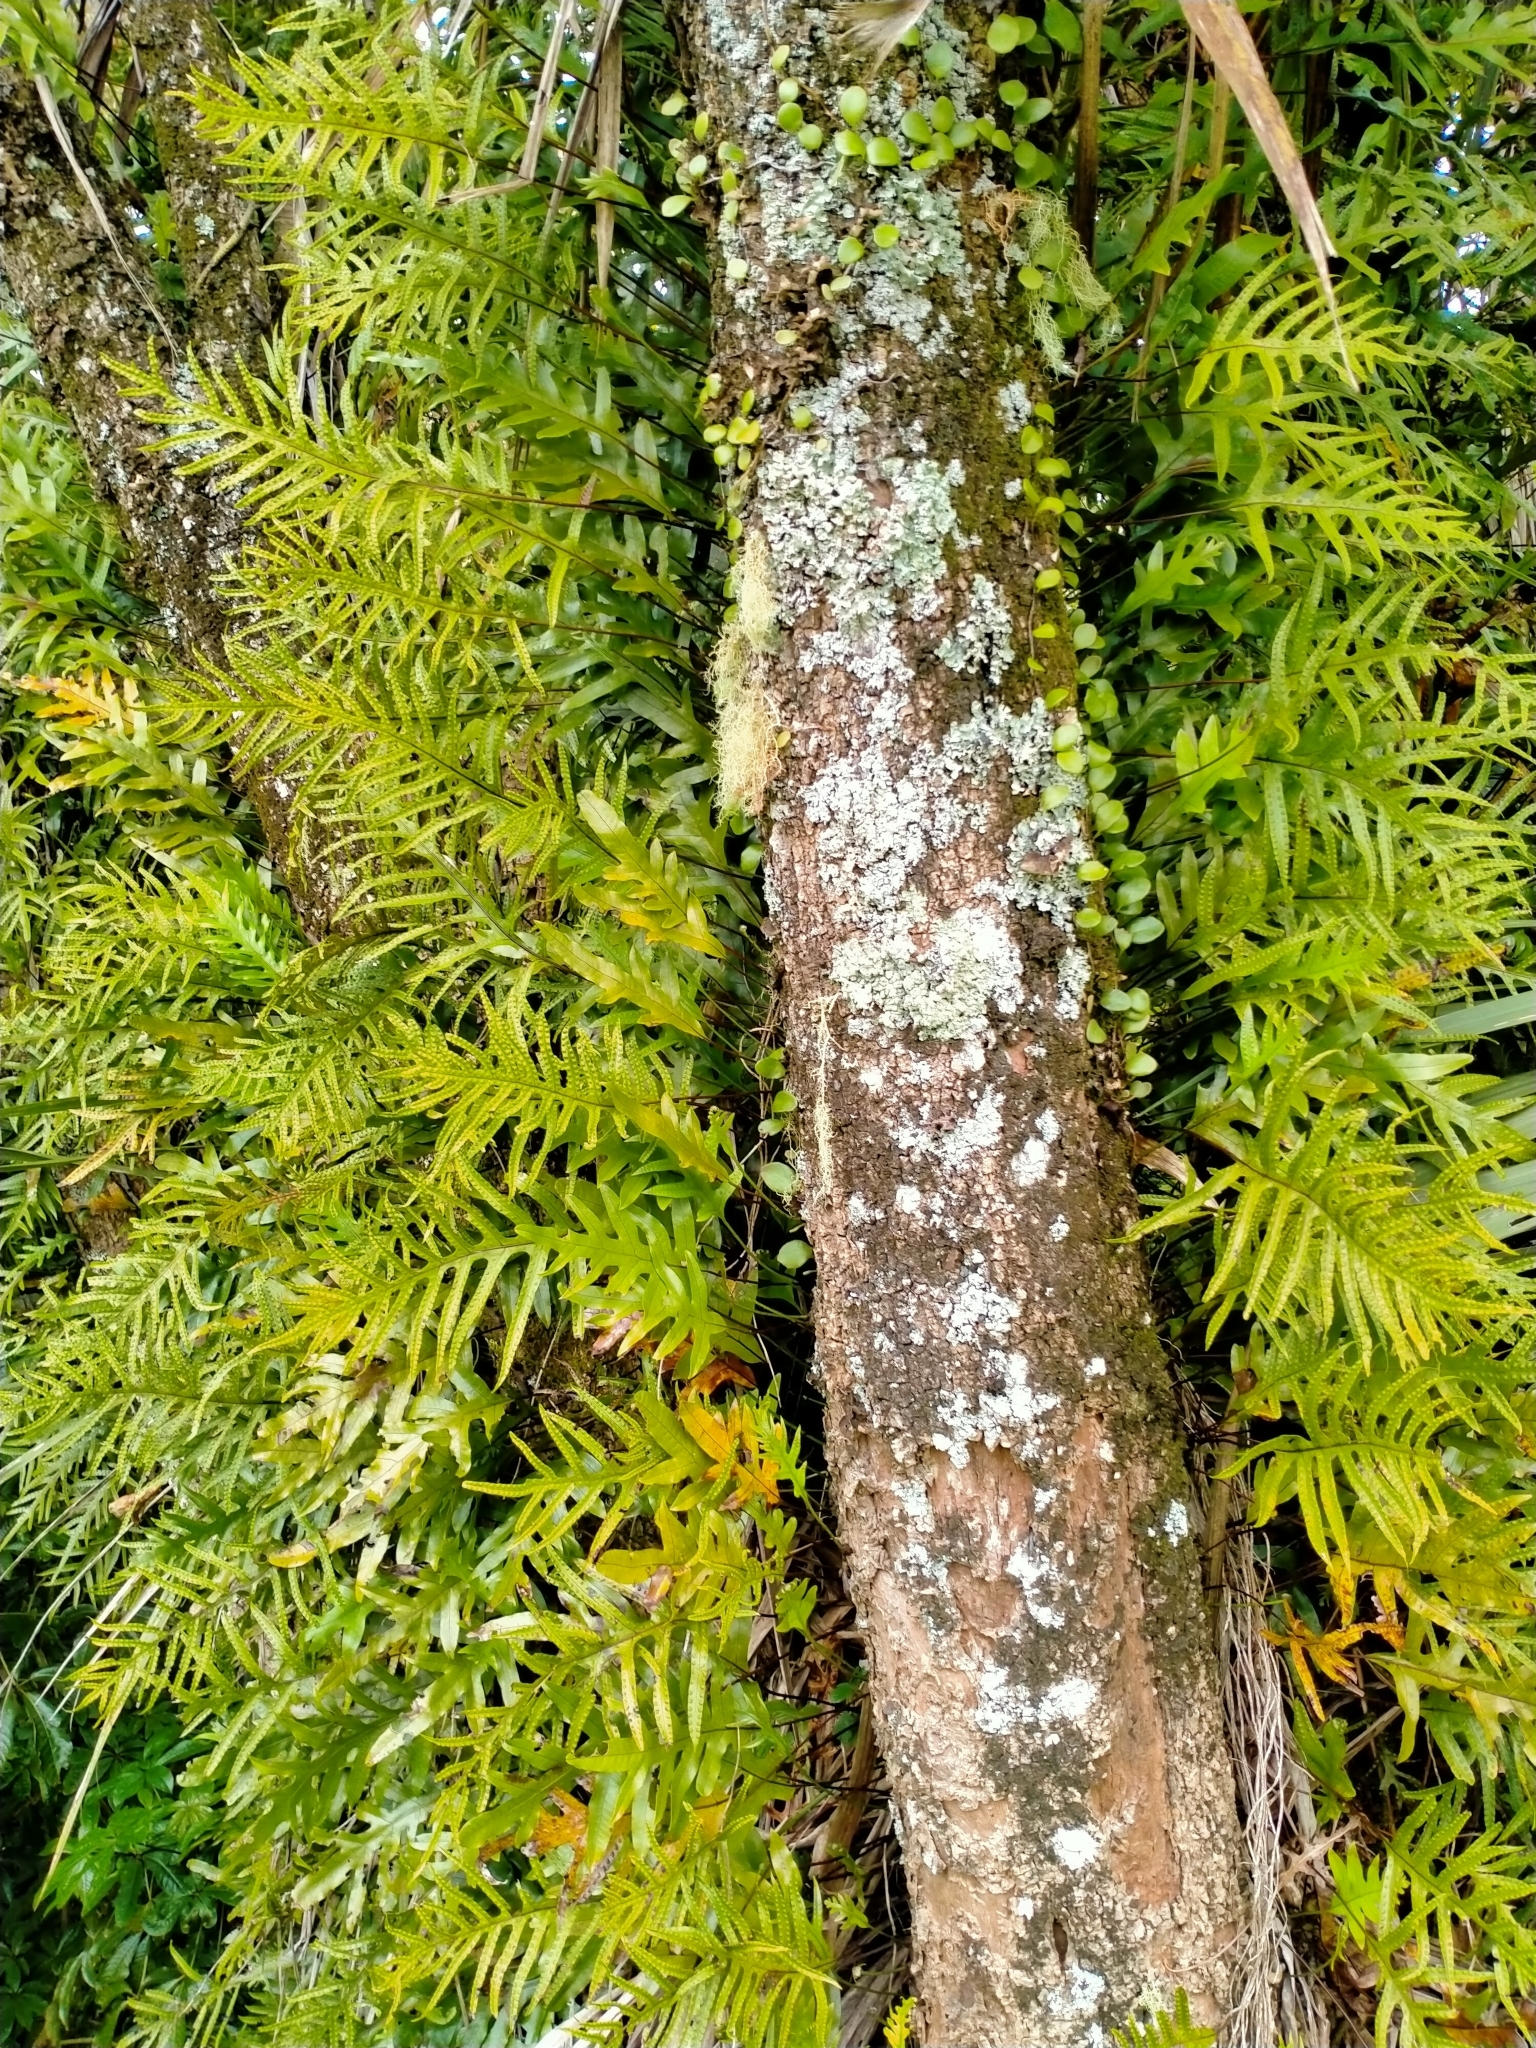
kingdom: Plantae
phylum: Tracheophyta
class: Polypodiopsida
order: Polypodiales
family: Polypodiaceae
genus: Lecanopteris
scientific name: Lecanopteris pustulata
